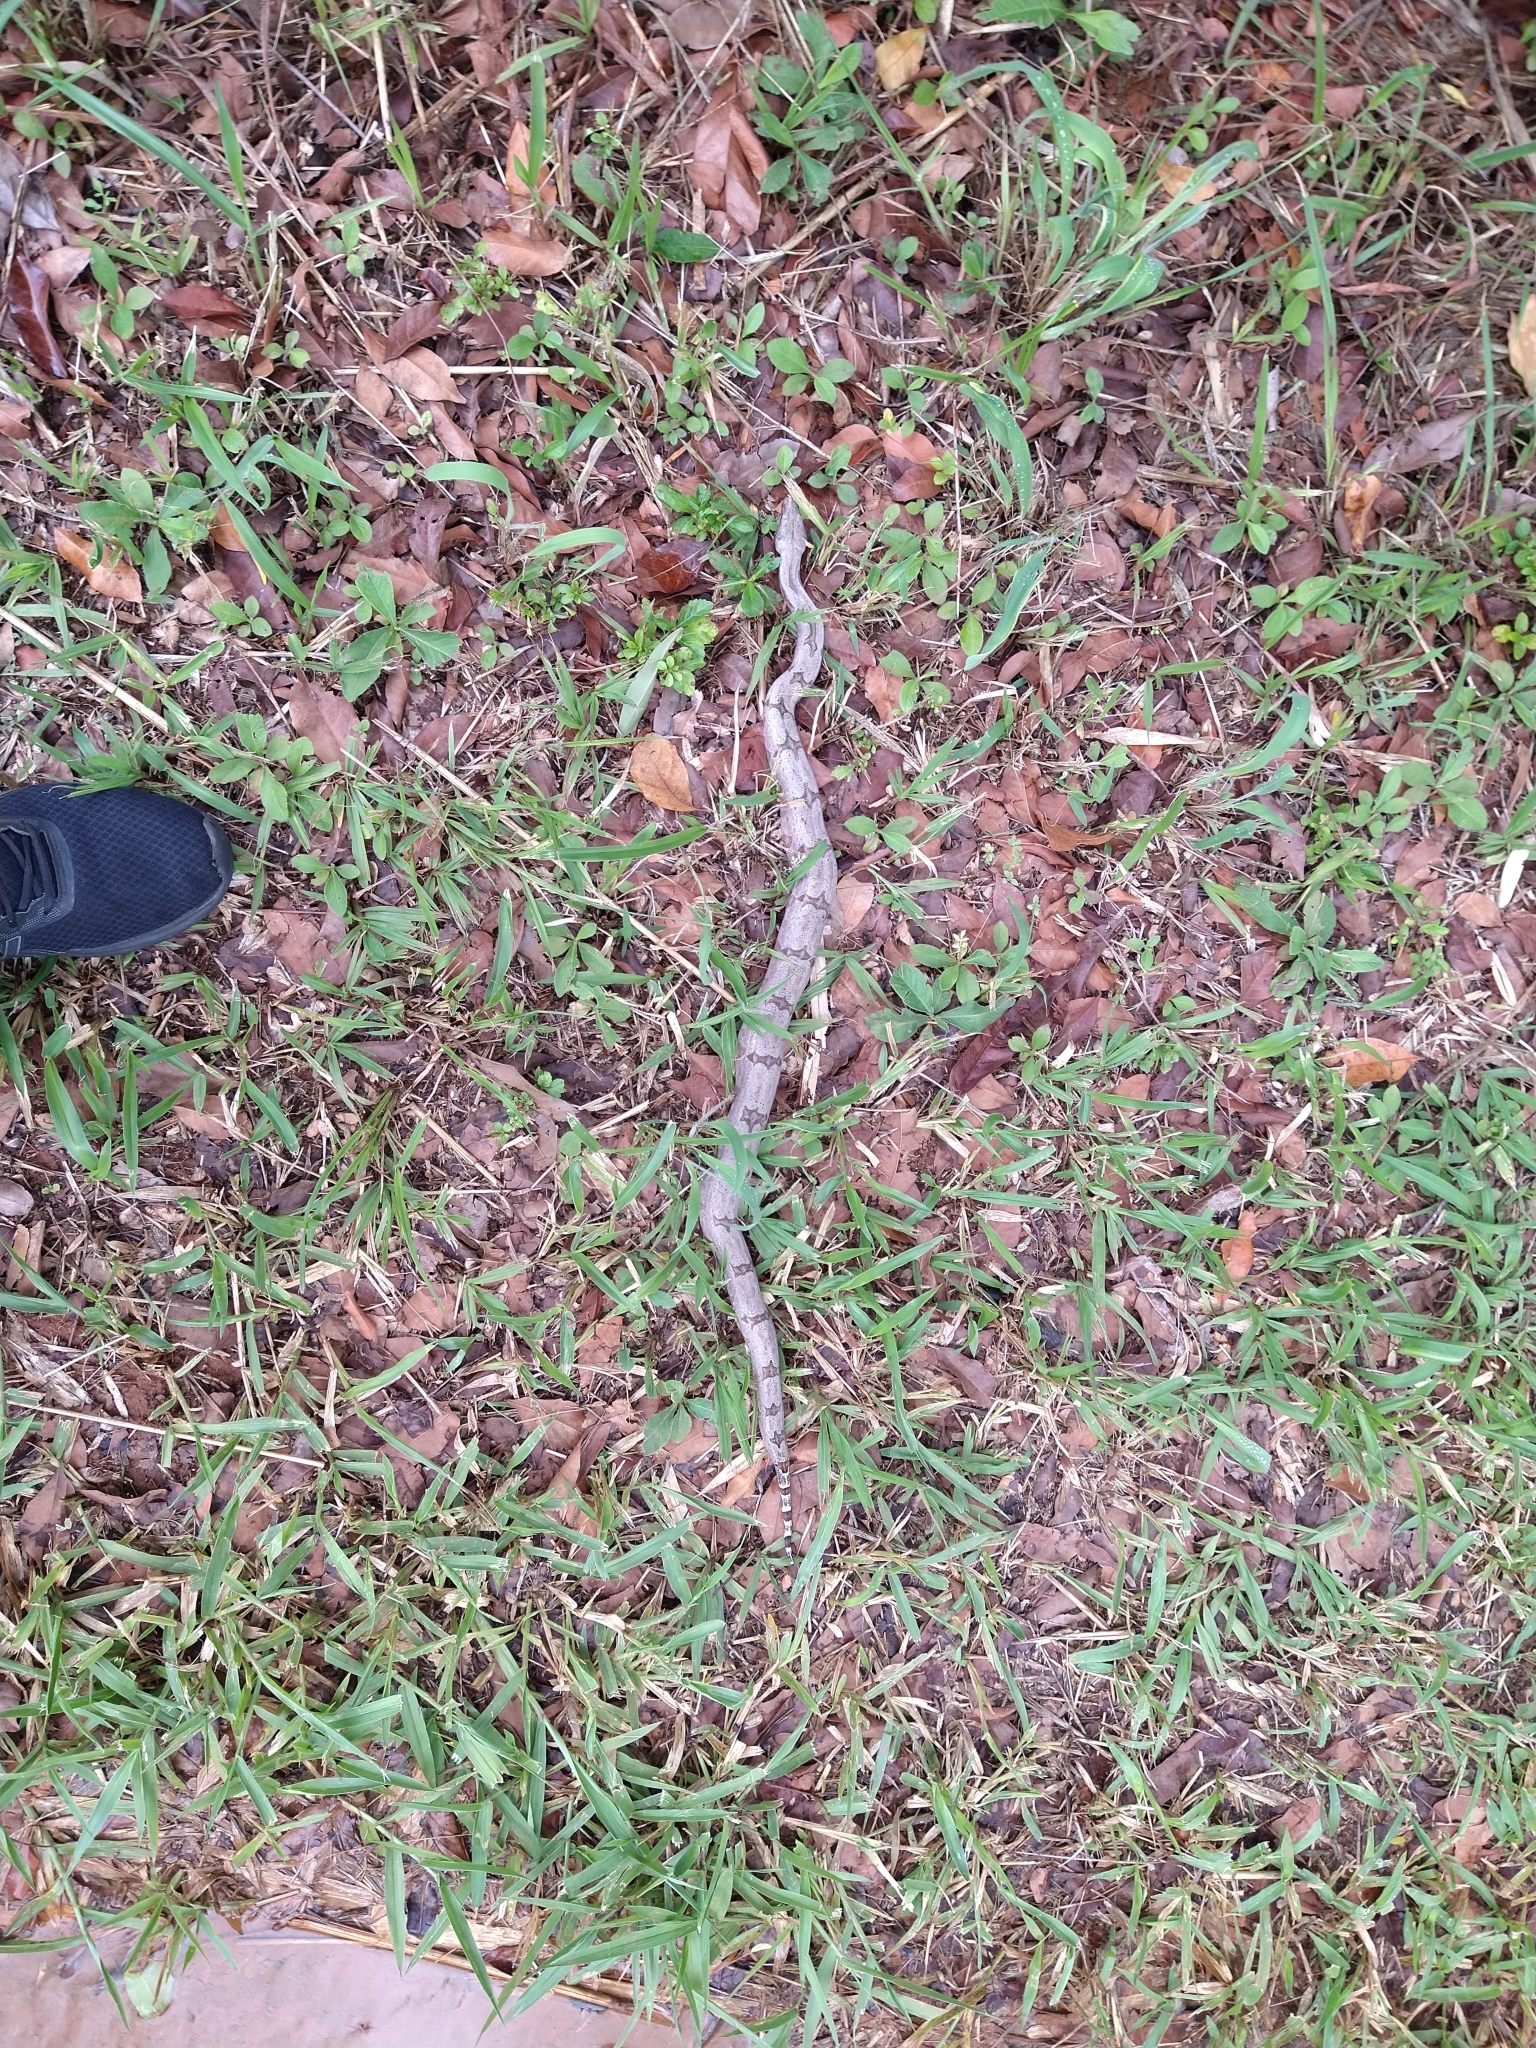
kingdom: Animalia
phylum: Chordata
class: Squamata
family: Boidae
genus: Boa
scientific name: Boa constrictor
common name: Boa constrictor
